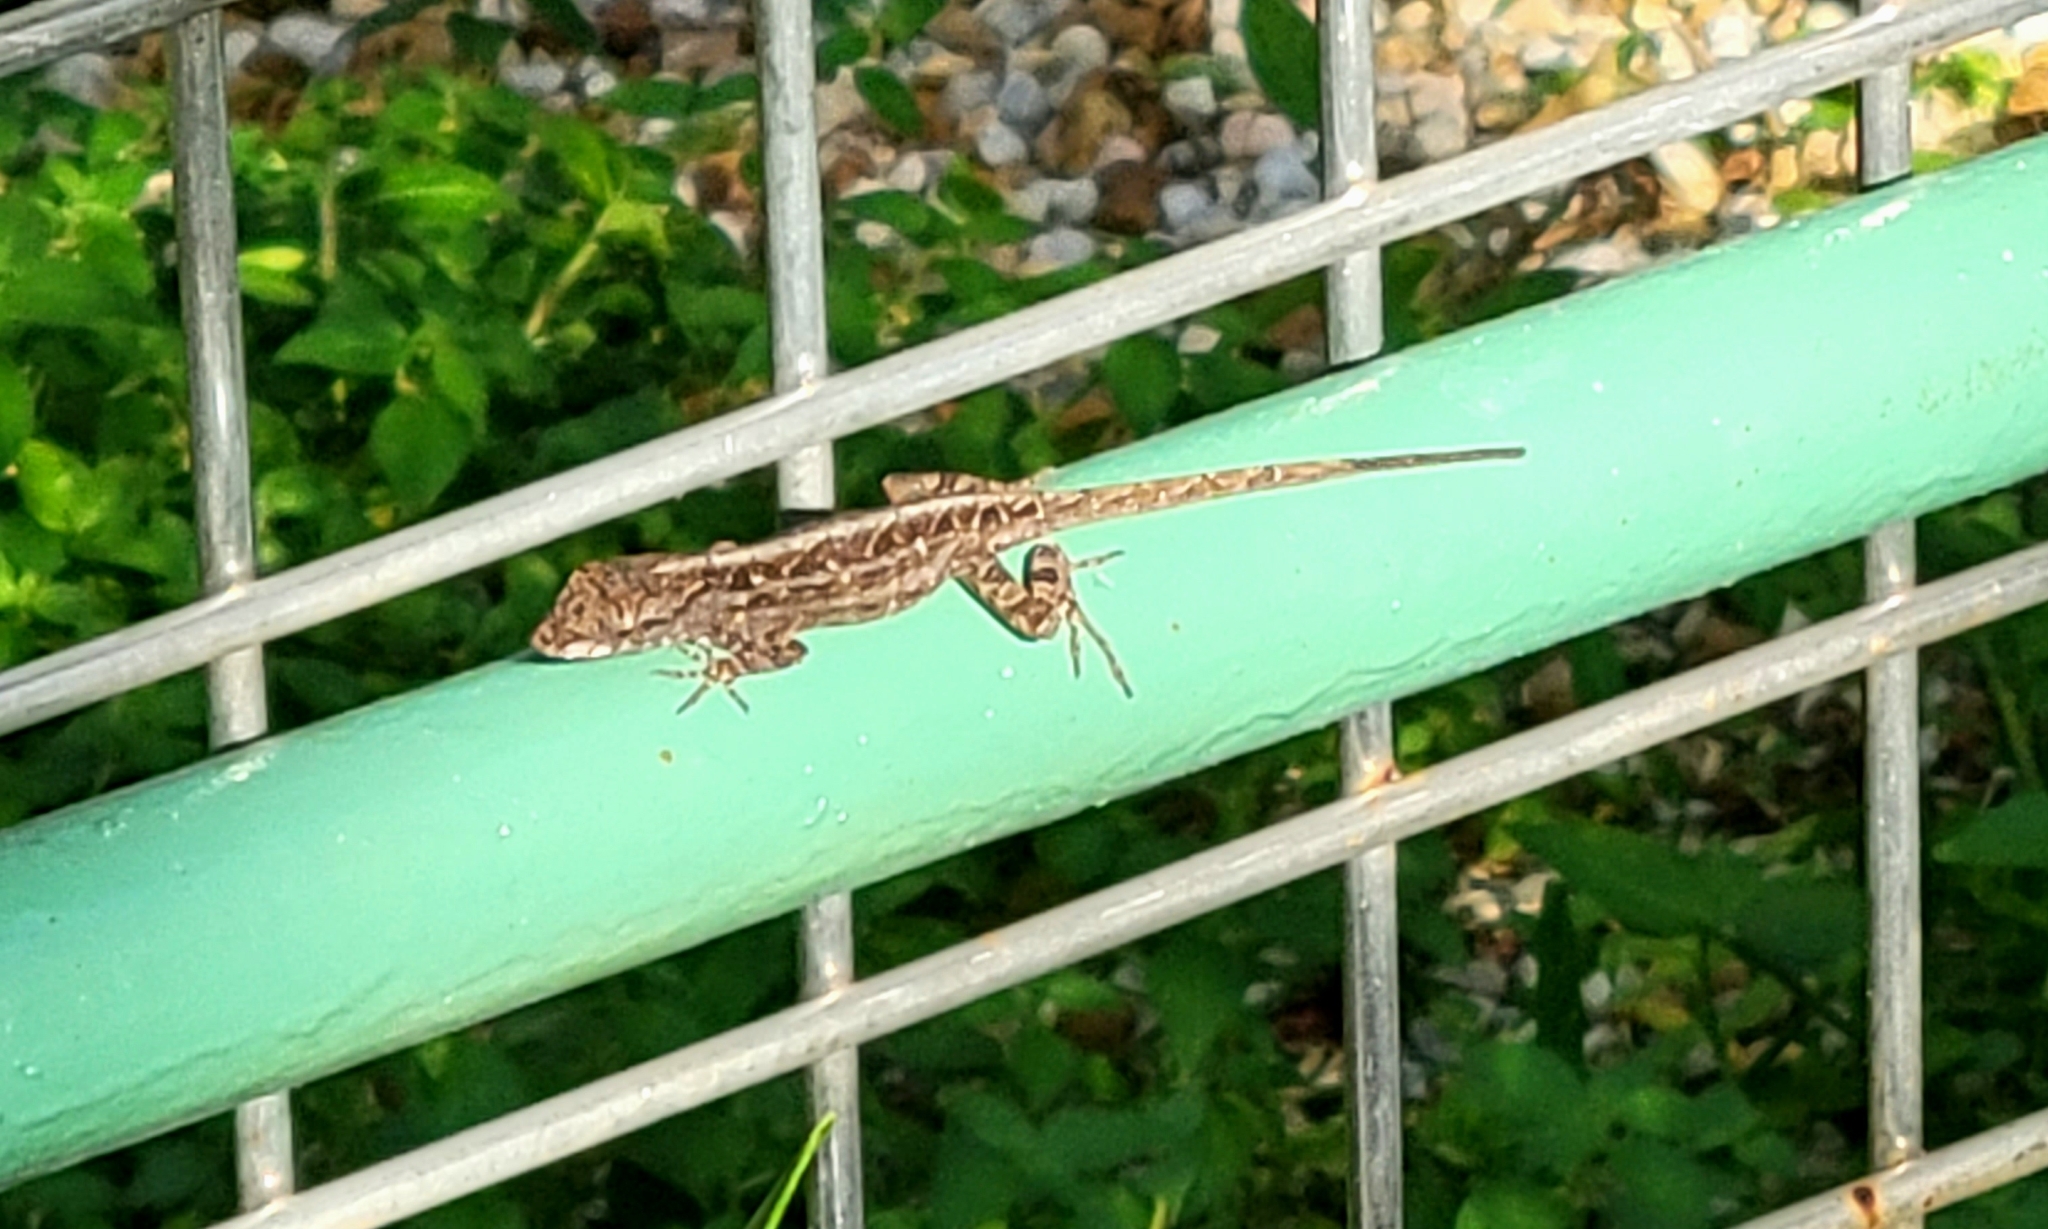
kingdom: Animalia
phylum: Chordata
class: Squamata
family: Dactyloidae
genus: Anolis
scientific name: Anolis sagrei
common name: Brown anole
